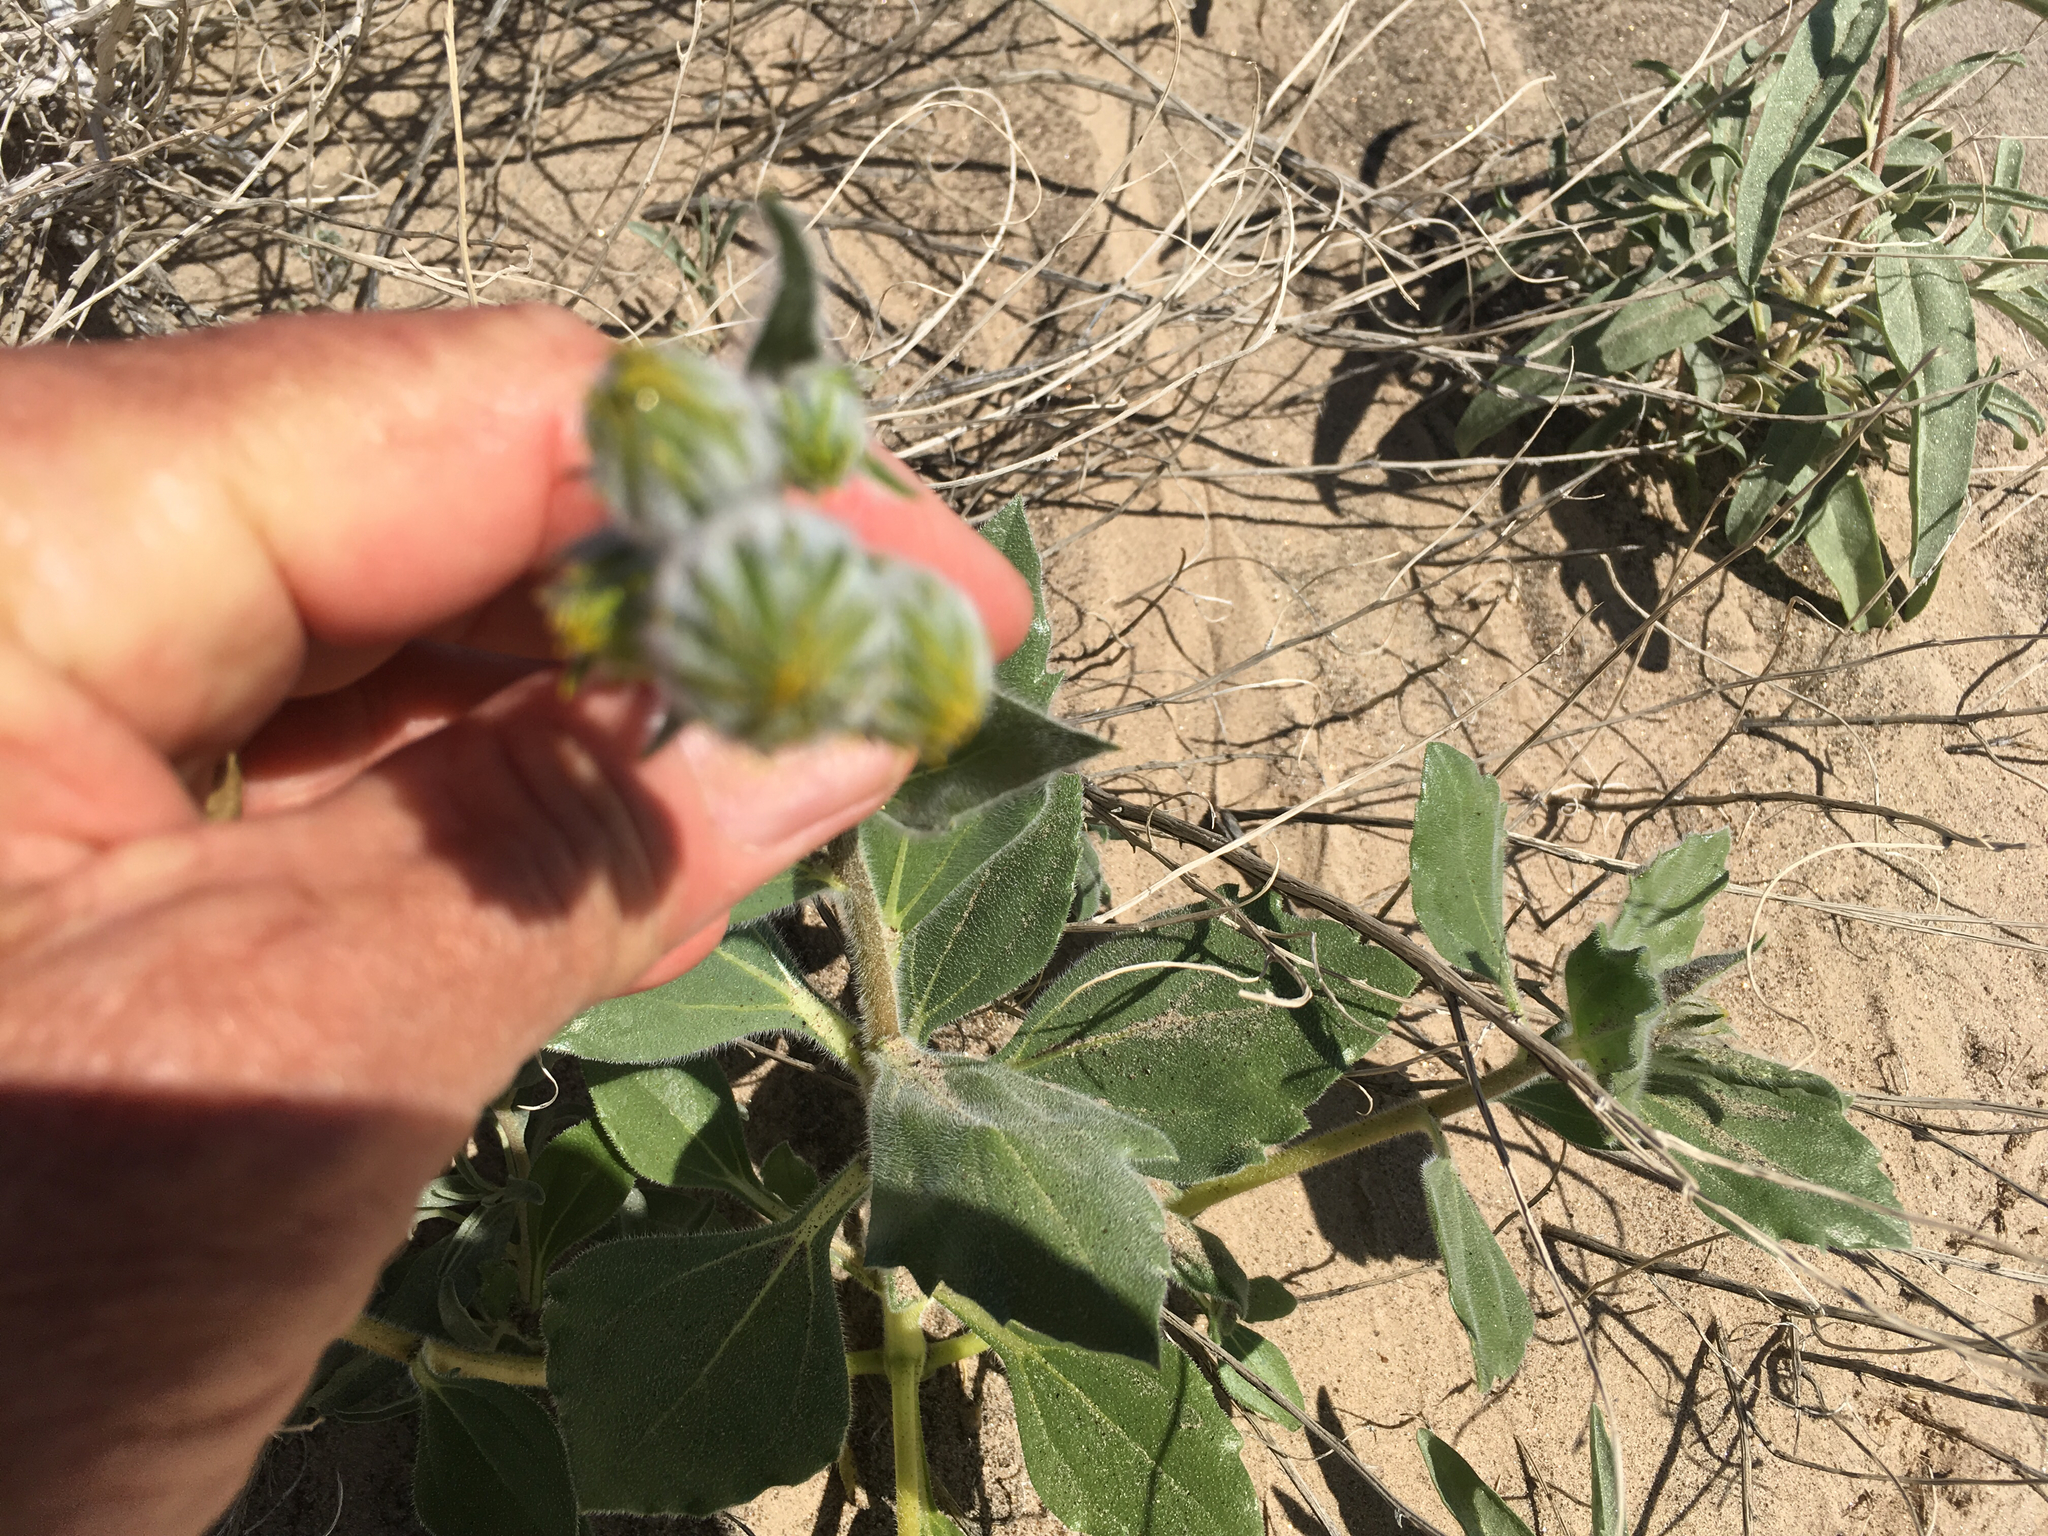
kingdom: Plantae
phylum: Tracheophyta
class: Magnoliopsida
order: Asterales
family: Asteraceae
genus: Geraea
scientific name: Geraea canescens
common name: Desert-gold
